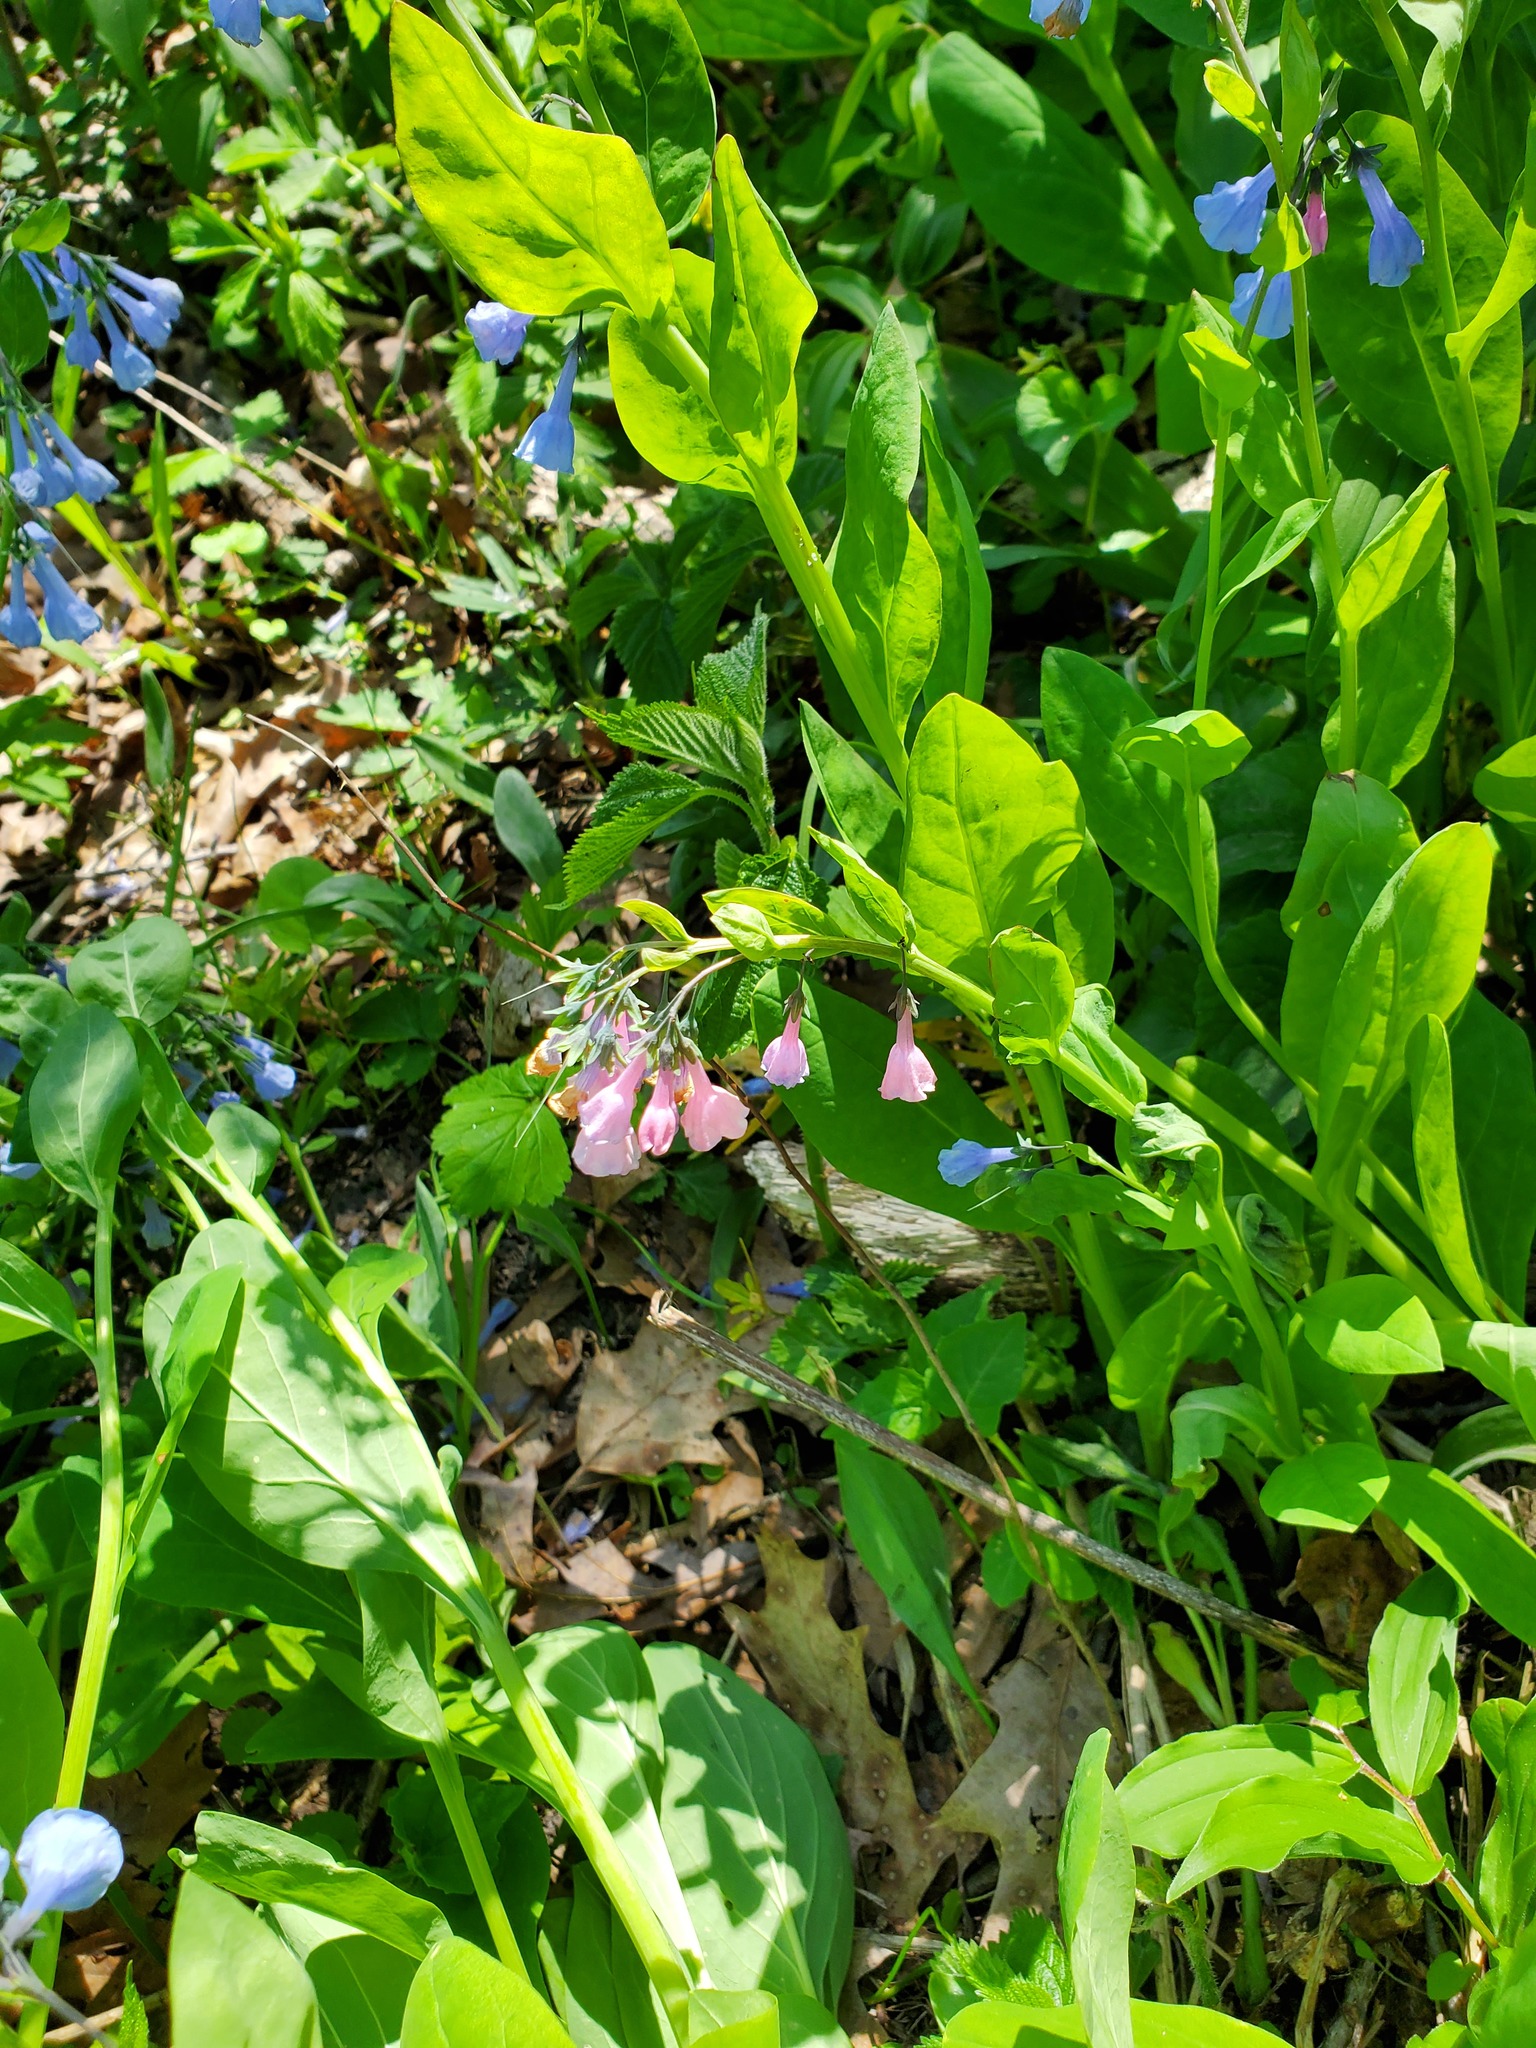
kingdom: Plantae
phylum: Tracheophyta
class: Magnoliopsida
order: Boraginales
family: Boraginaceae
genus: Mertensia
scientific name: Mertensia virginica
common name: Virginia bluebells
